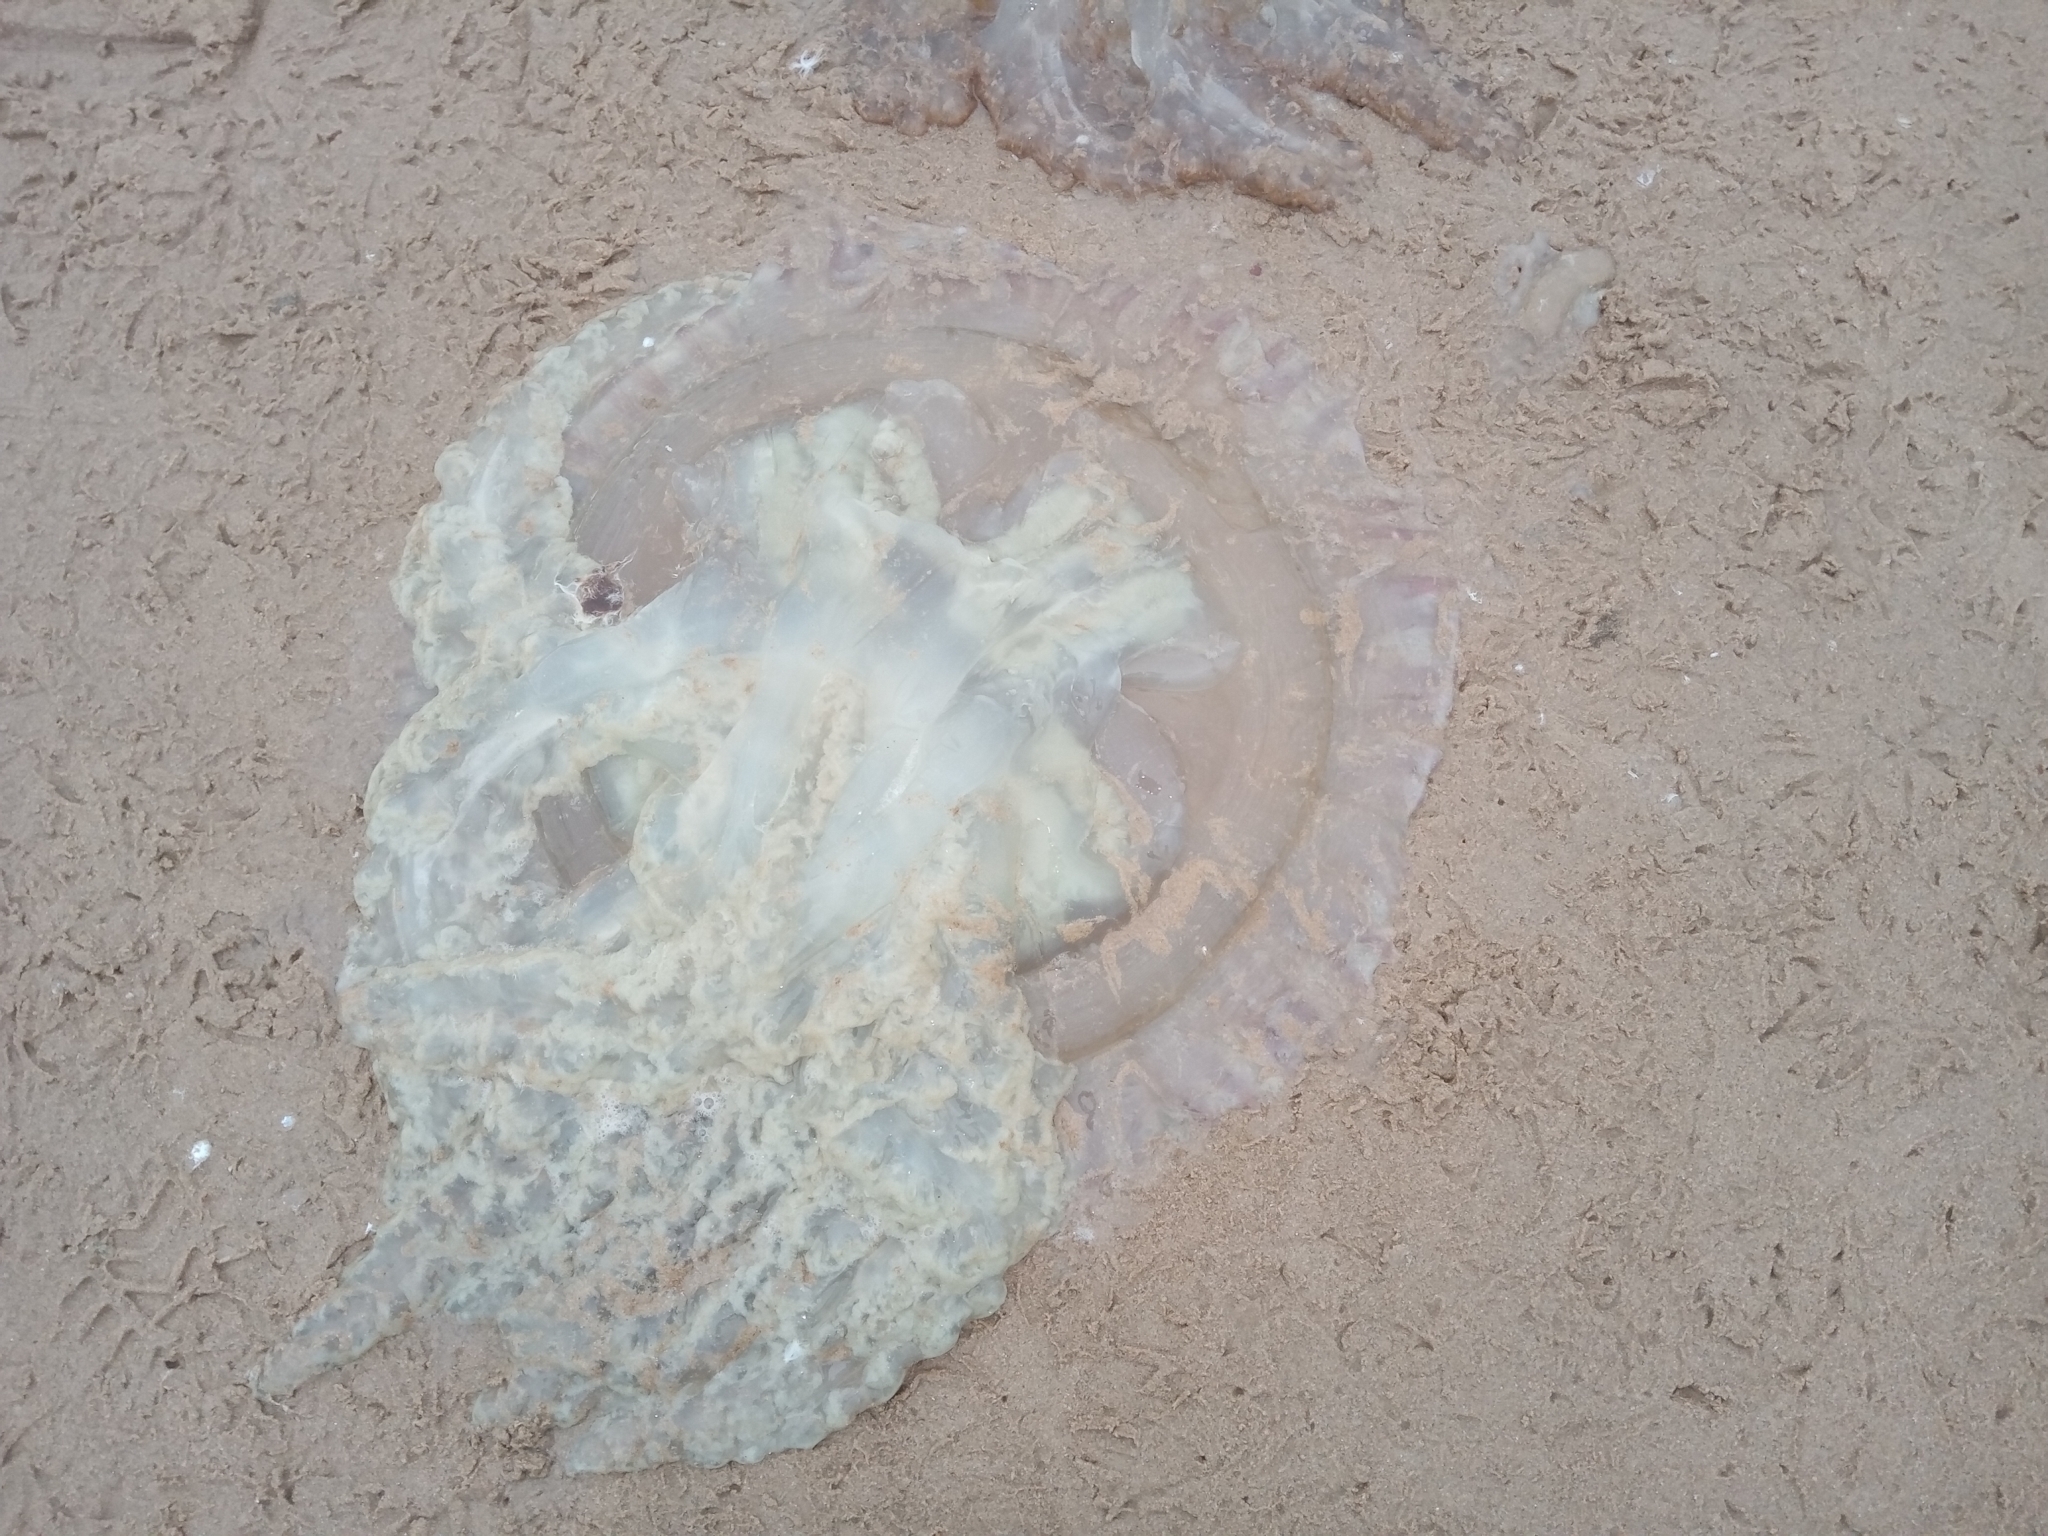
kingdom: Animalia
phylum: Cnidaria
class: Scyphozoa
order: Rhizostomeae
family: Catostylidae
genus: Catostylus
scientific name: Catostylus tagi
